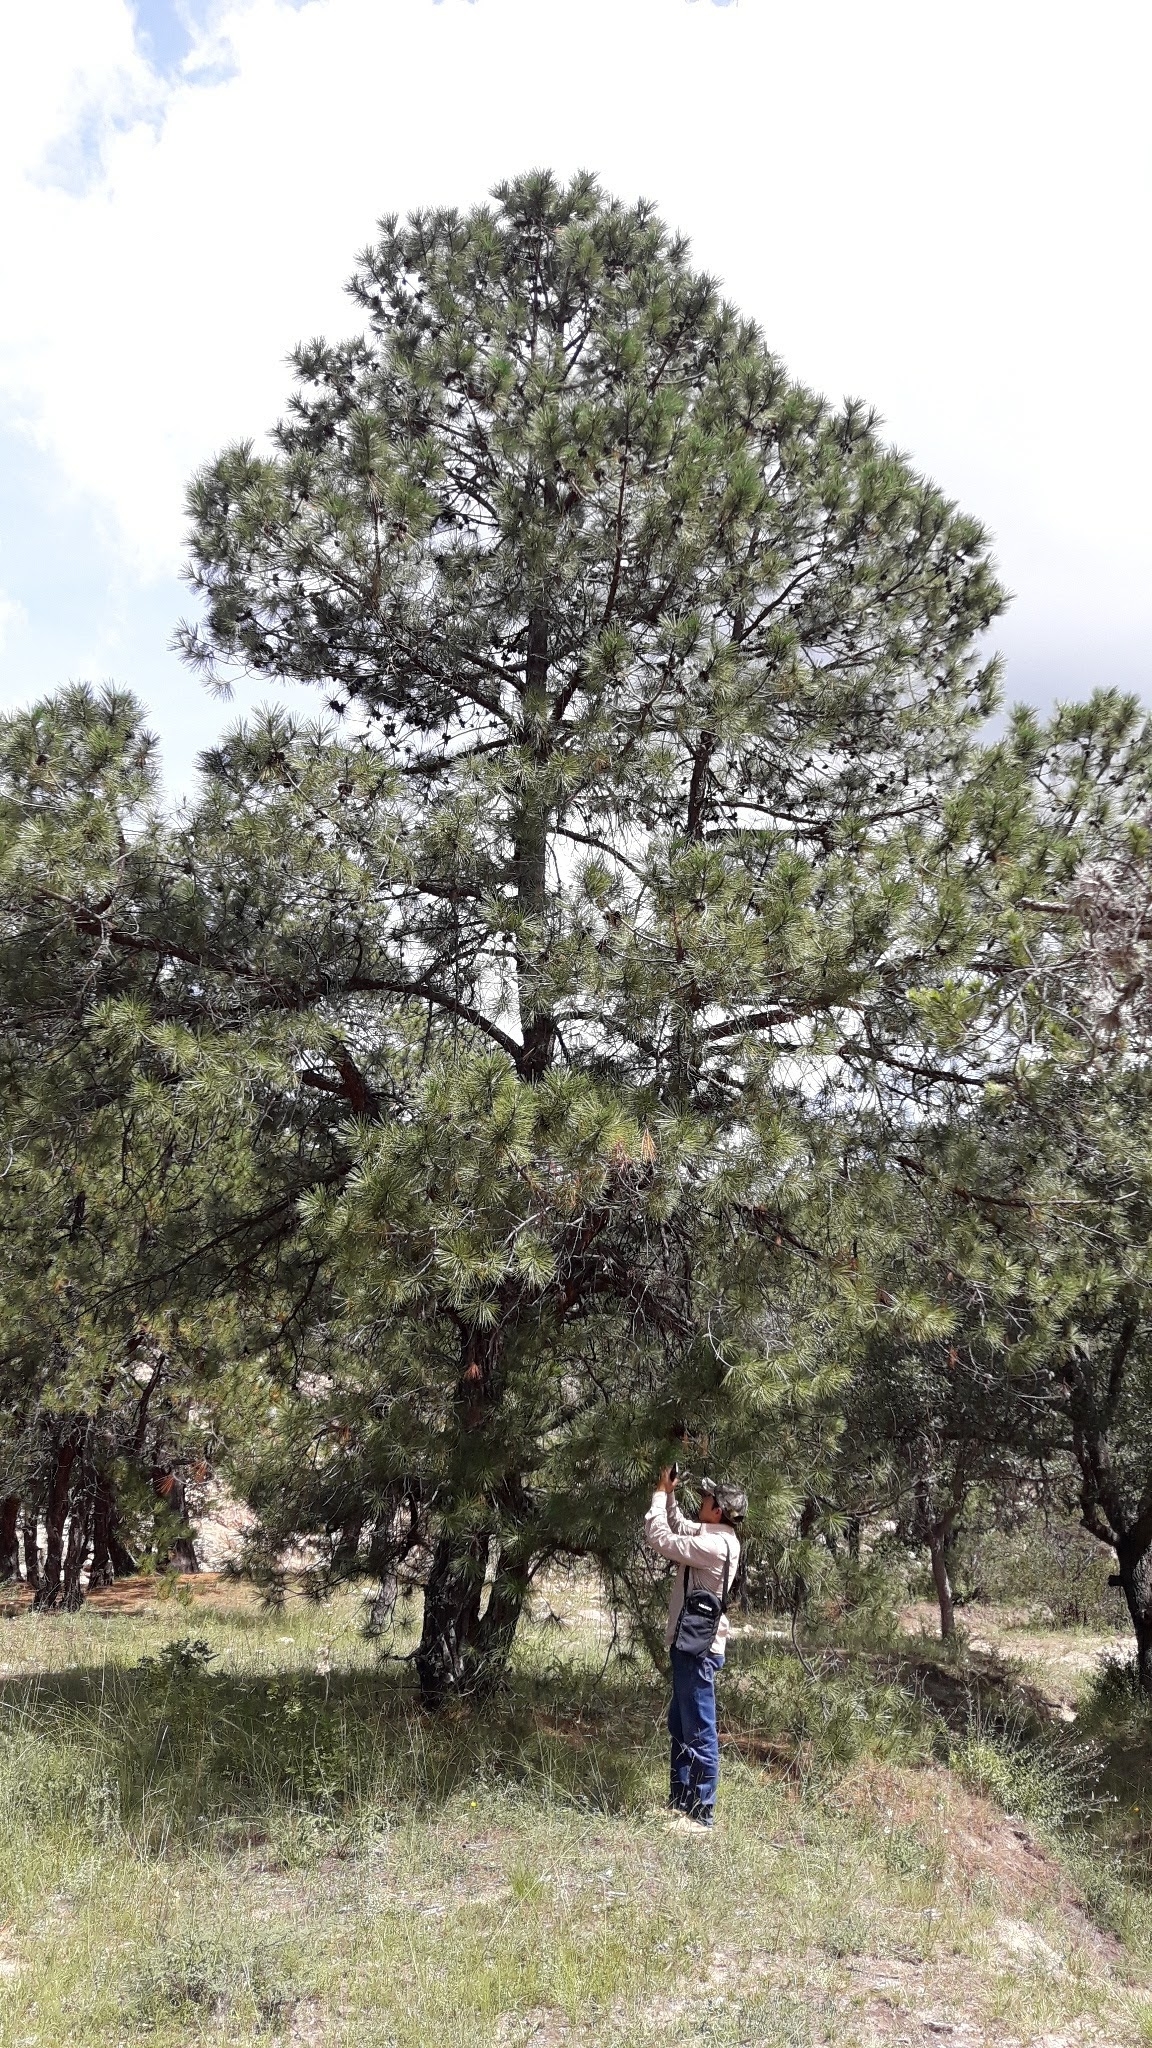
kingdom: Plantae
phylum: Tracheophyta
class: Pinopsida
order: Pinales
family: Pinaceae
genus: Pinus
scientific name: Pinus lawsonii
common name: Lawson's pine
